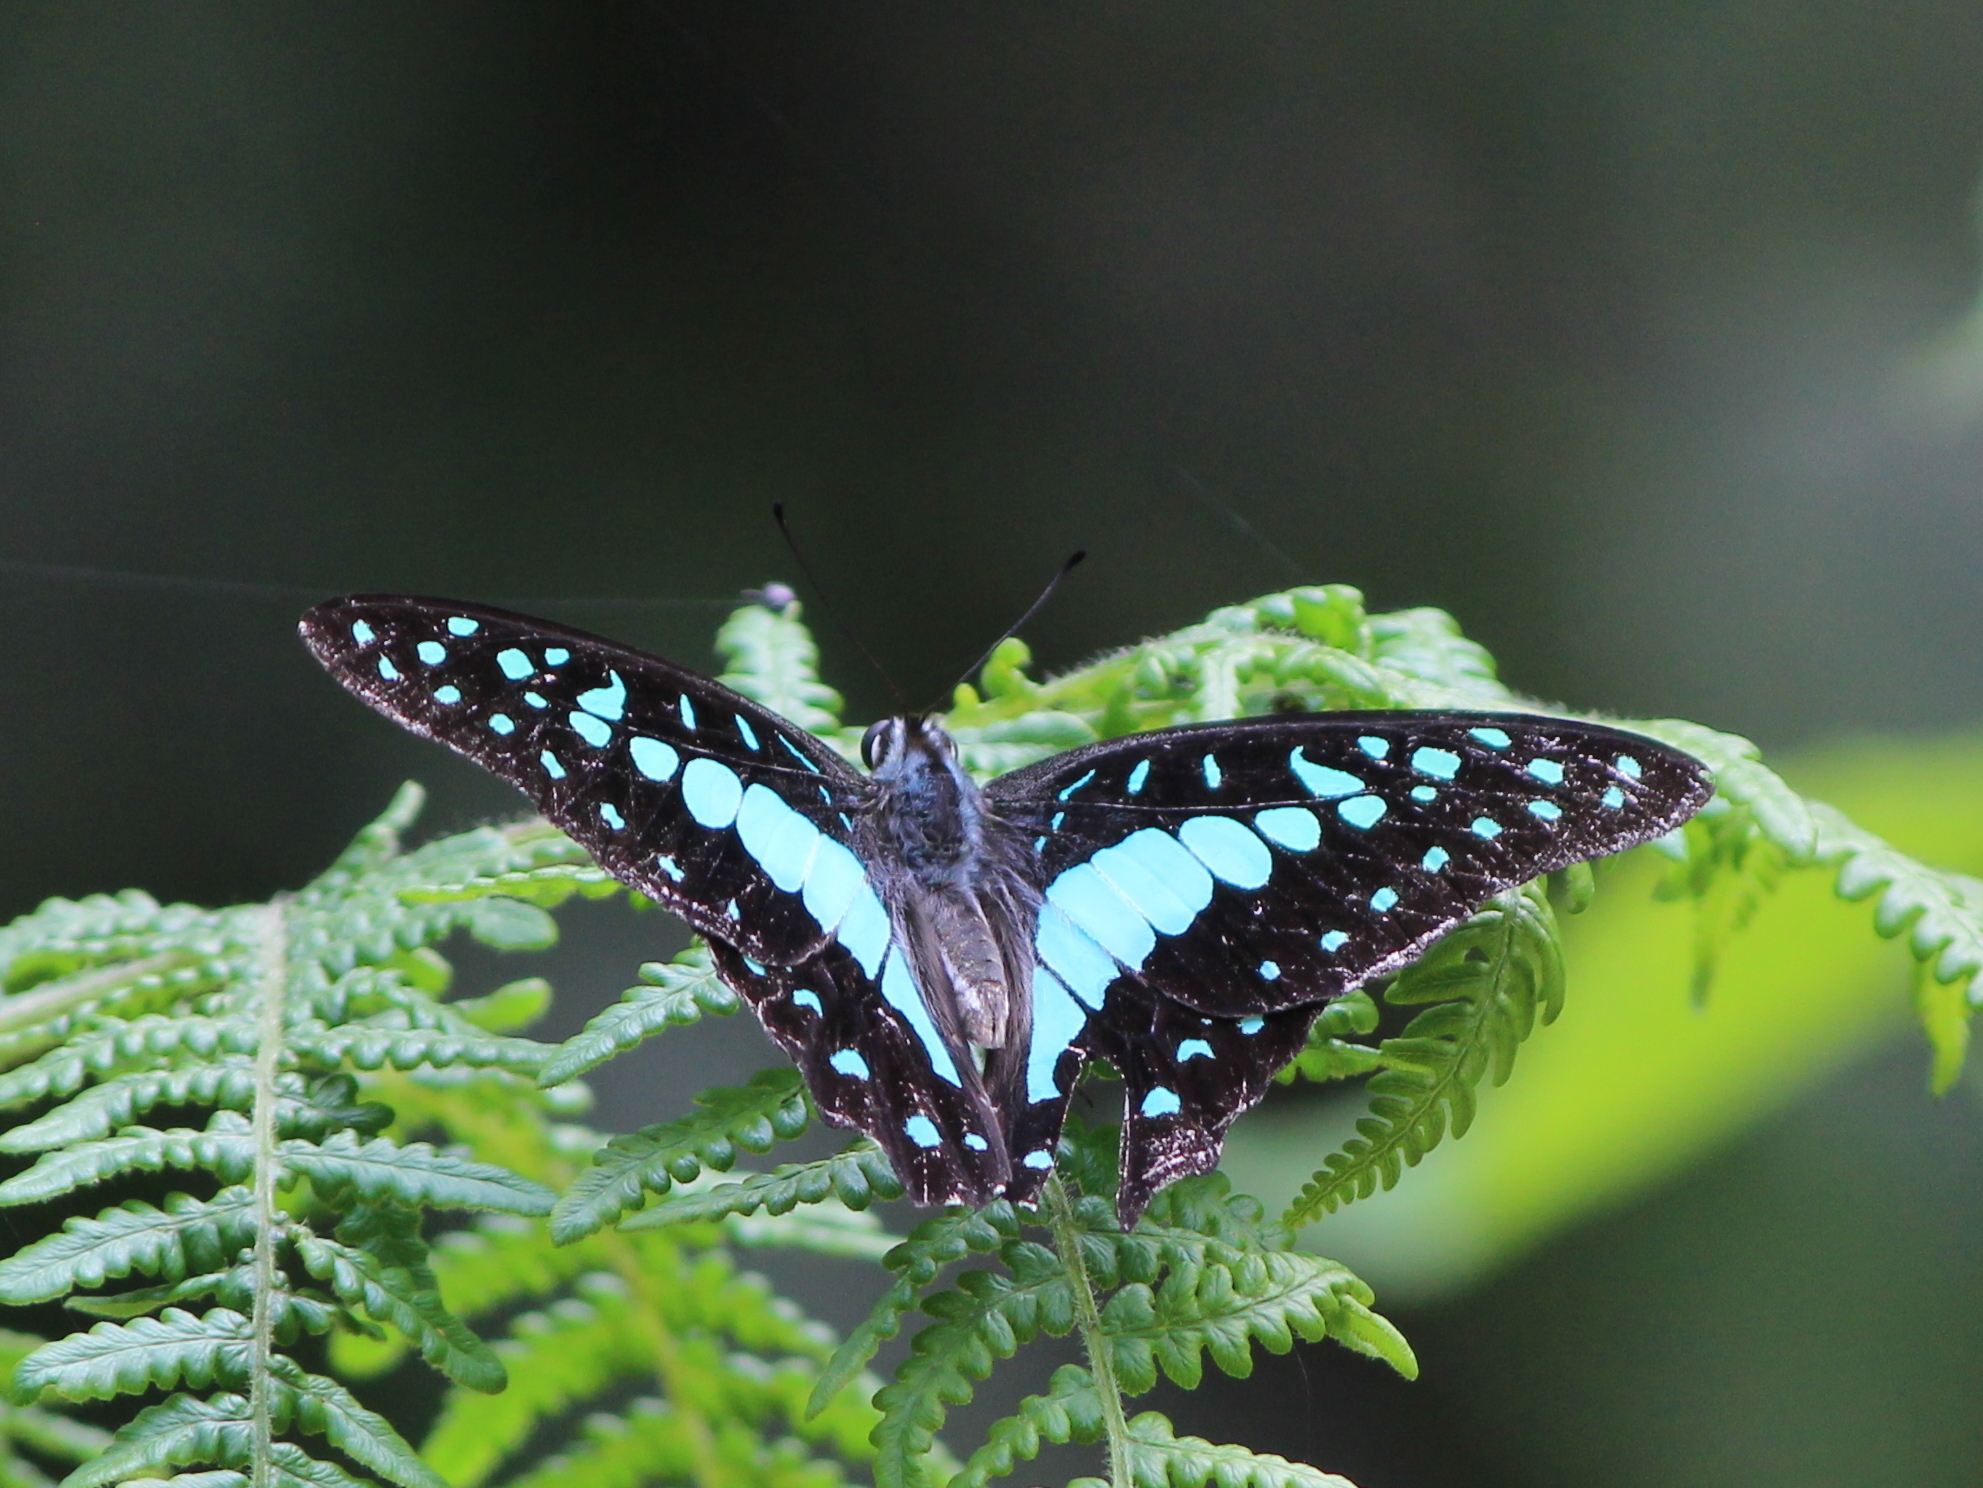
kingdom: Animalia
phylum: Arthropoda
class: Insecta
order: Lepidoptera
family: Papilionidae
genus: Graphium
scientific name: Graphium doson
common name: Common jay
